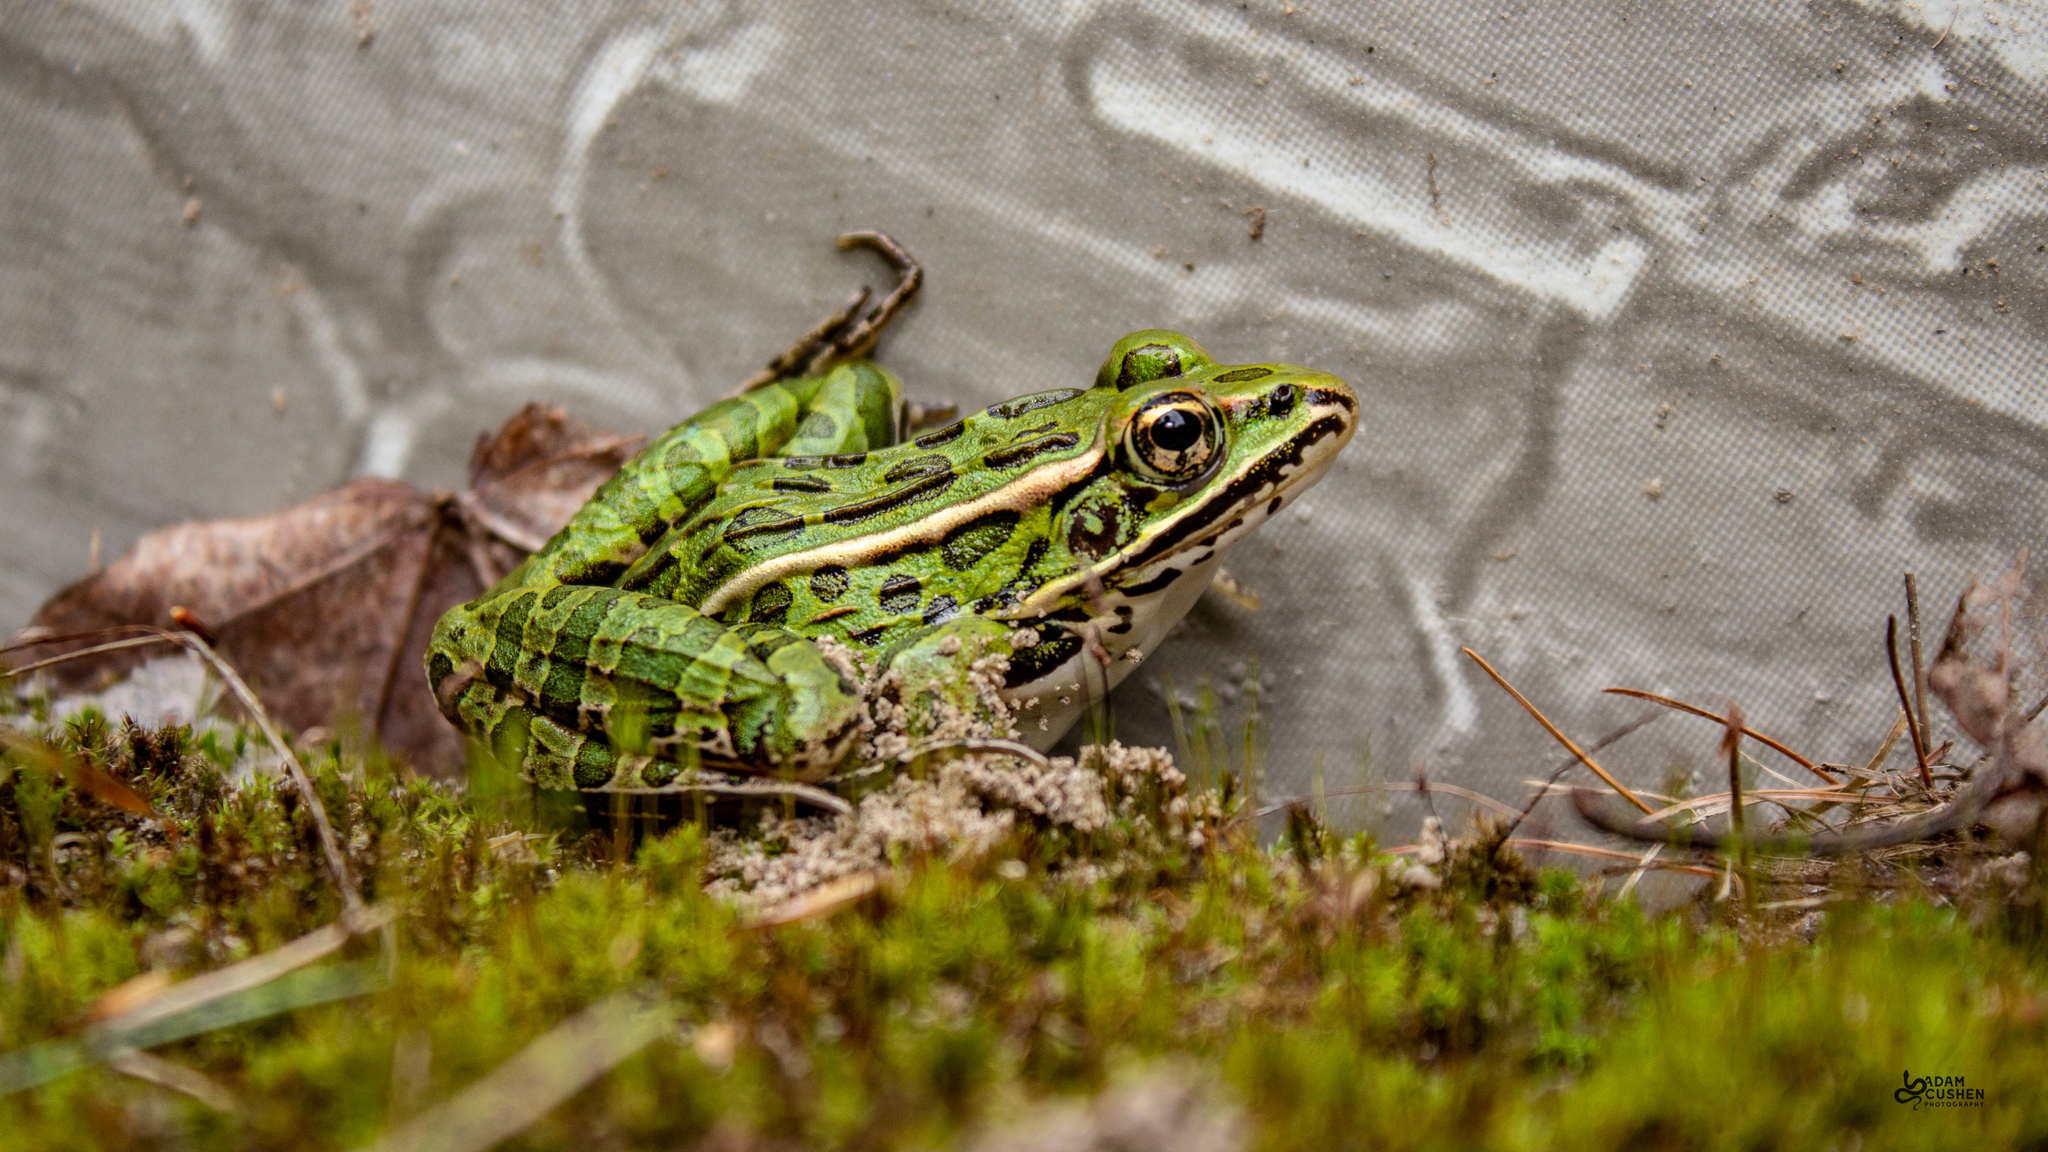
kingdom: Animalia
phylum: Chordata
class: Amphibia
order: Anura
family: Ranidae
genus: Lithobates
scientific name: Lithobates pipiens
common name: Northern leopard frog
